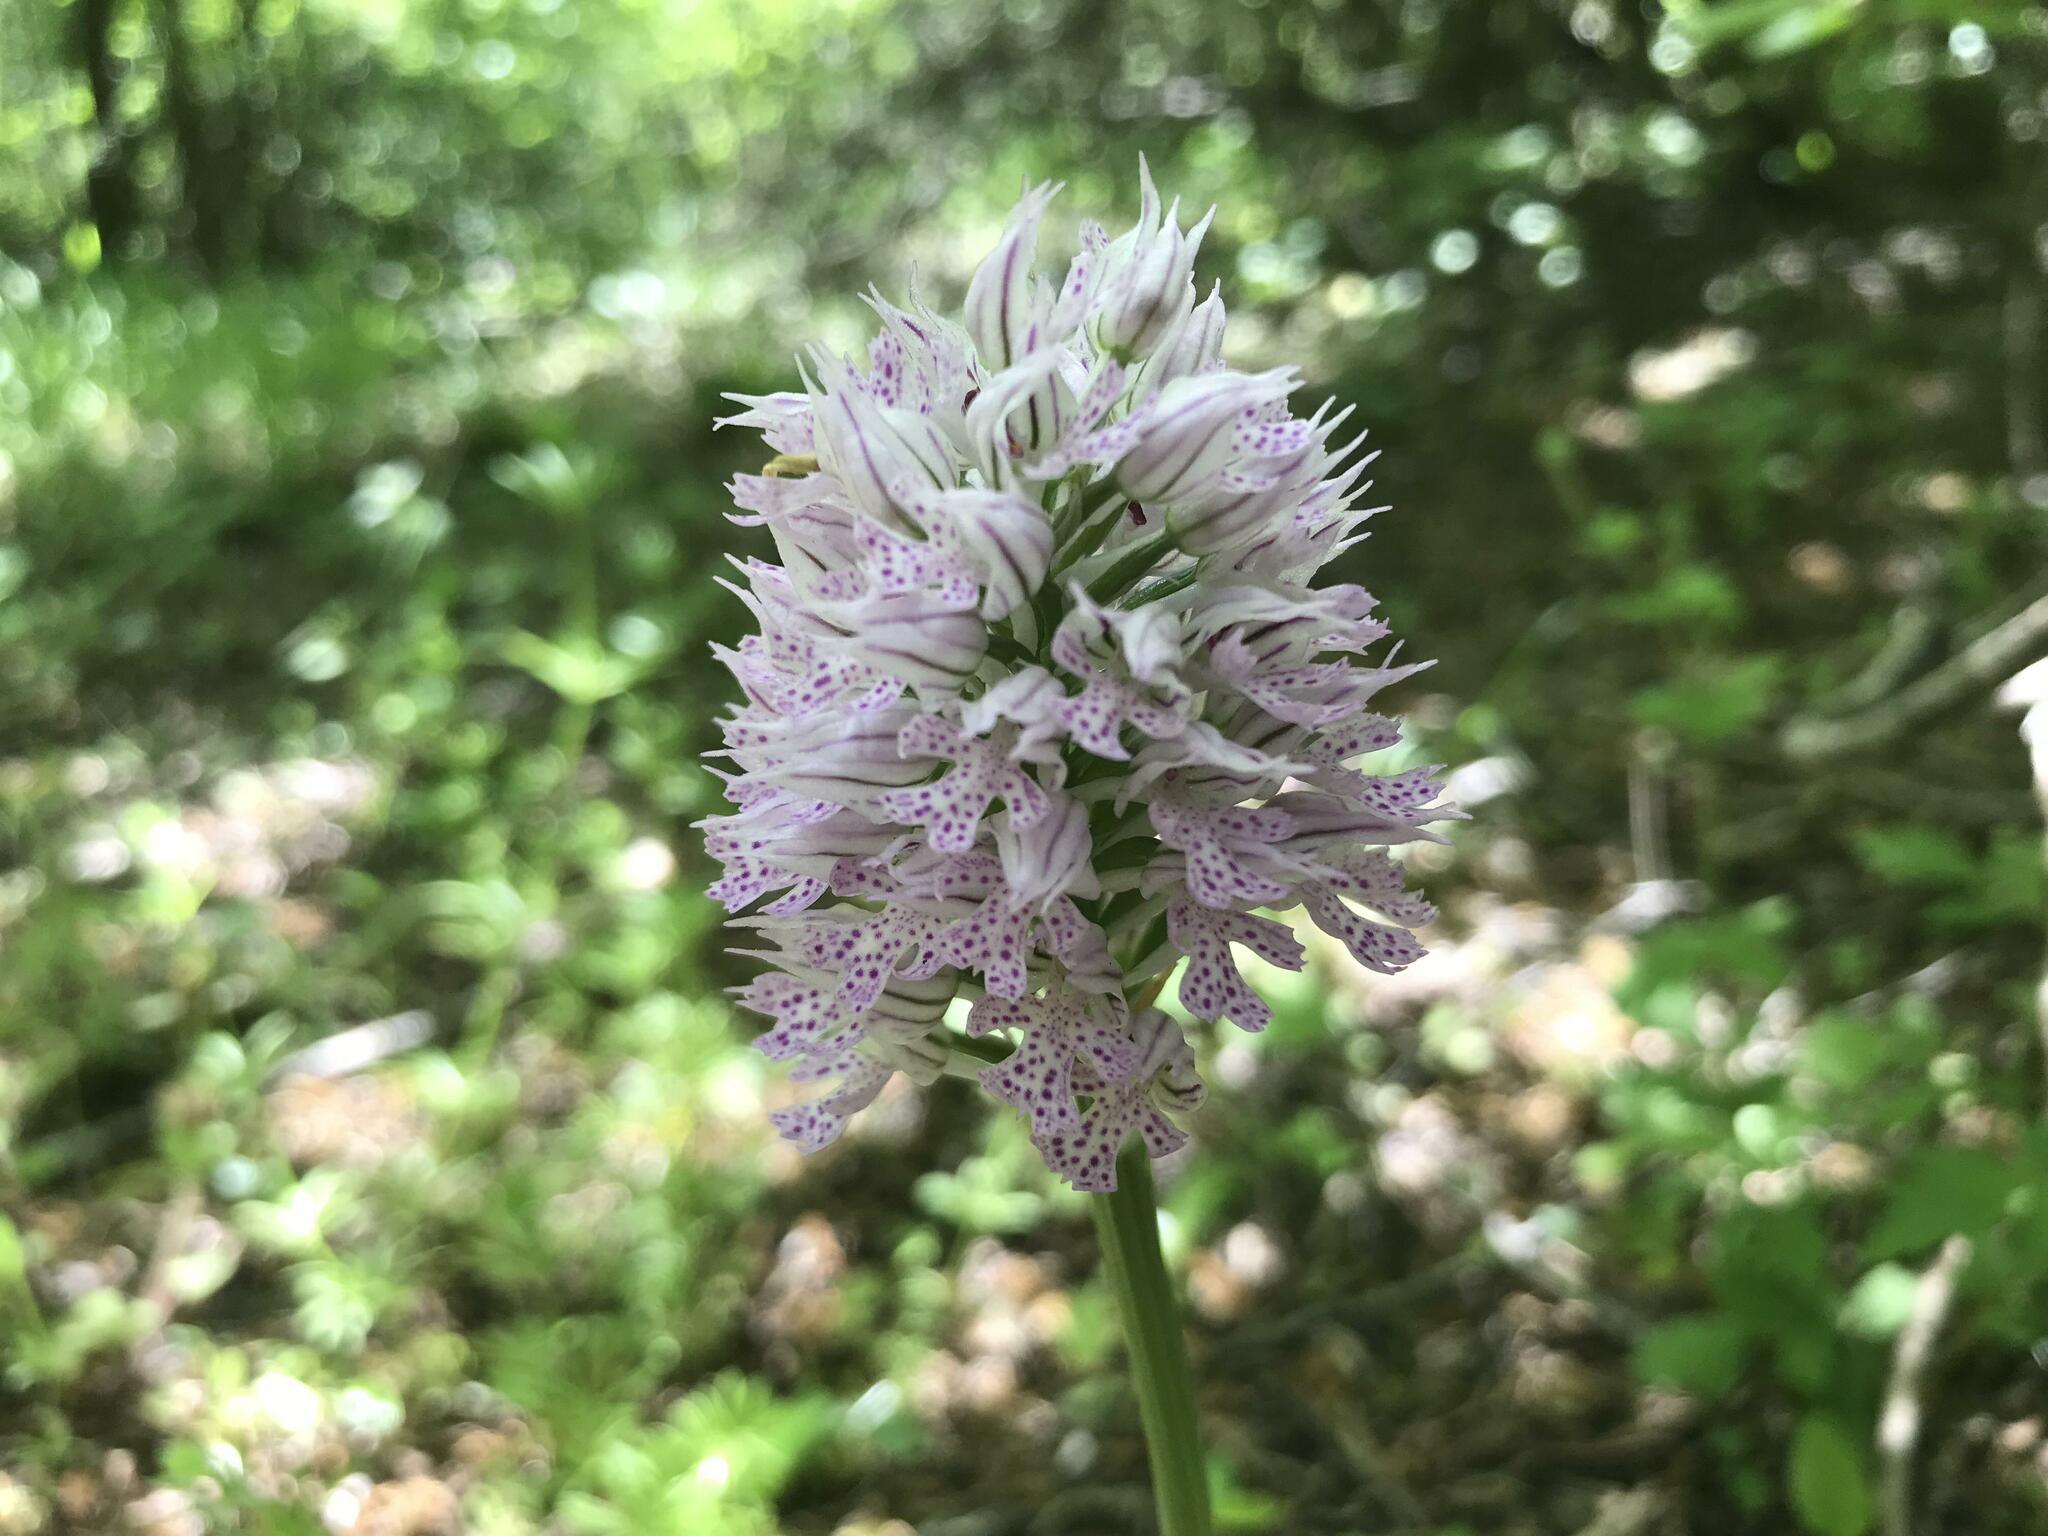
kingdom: Plantae
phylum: Tracheophyta
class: Liliopsida
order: Asparagales
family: Orchidaceae
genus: Neotinea
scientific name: Neotinea tridentata
